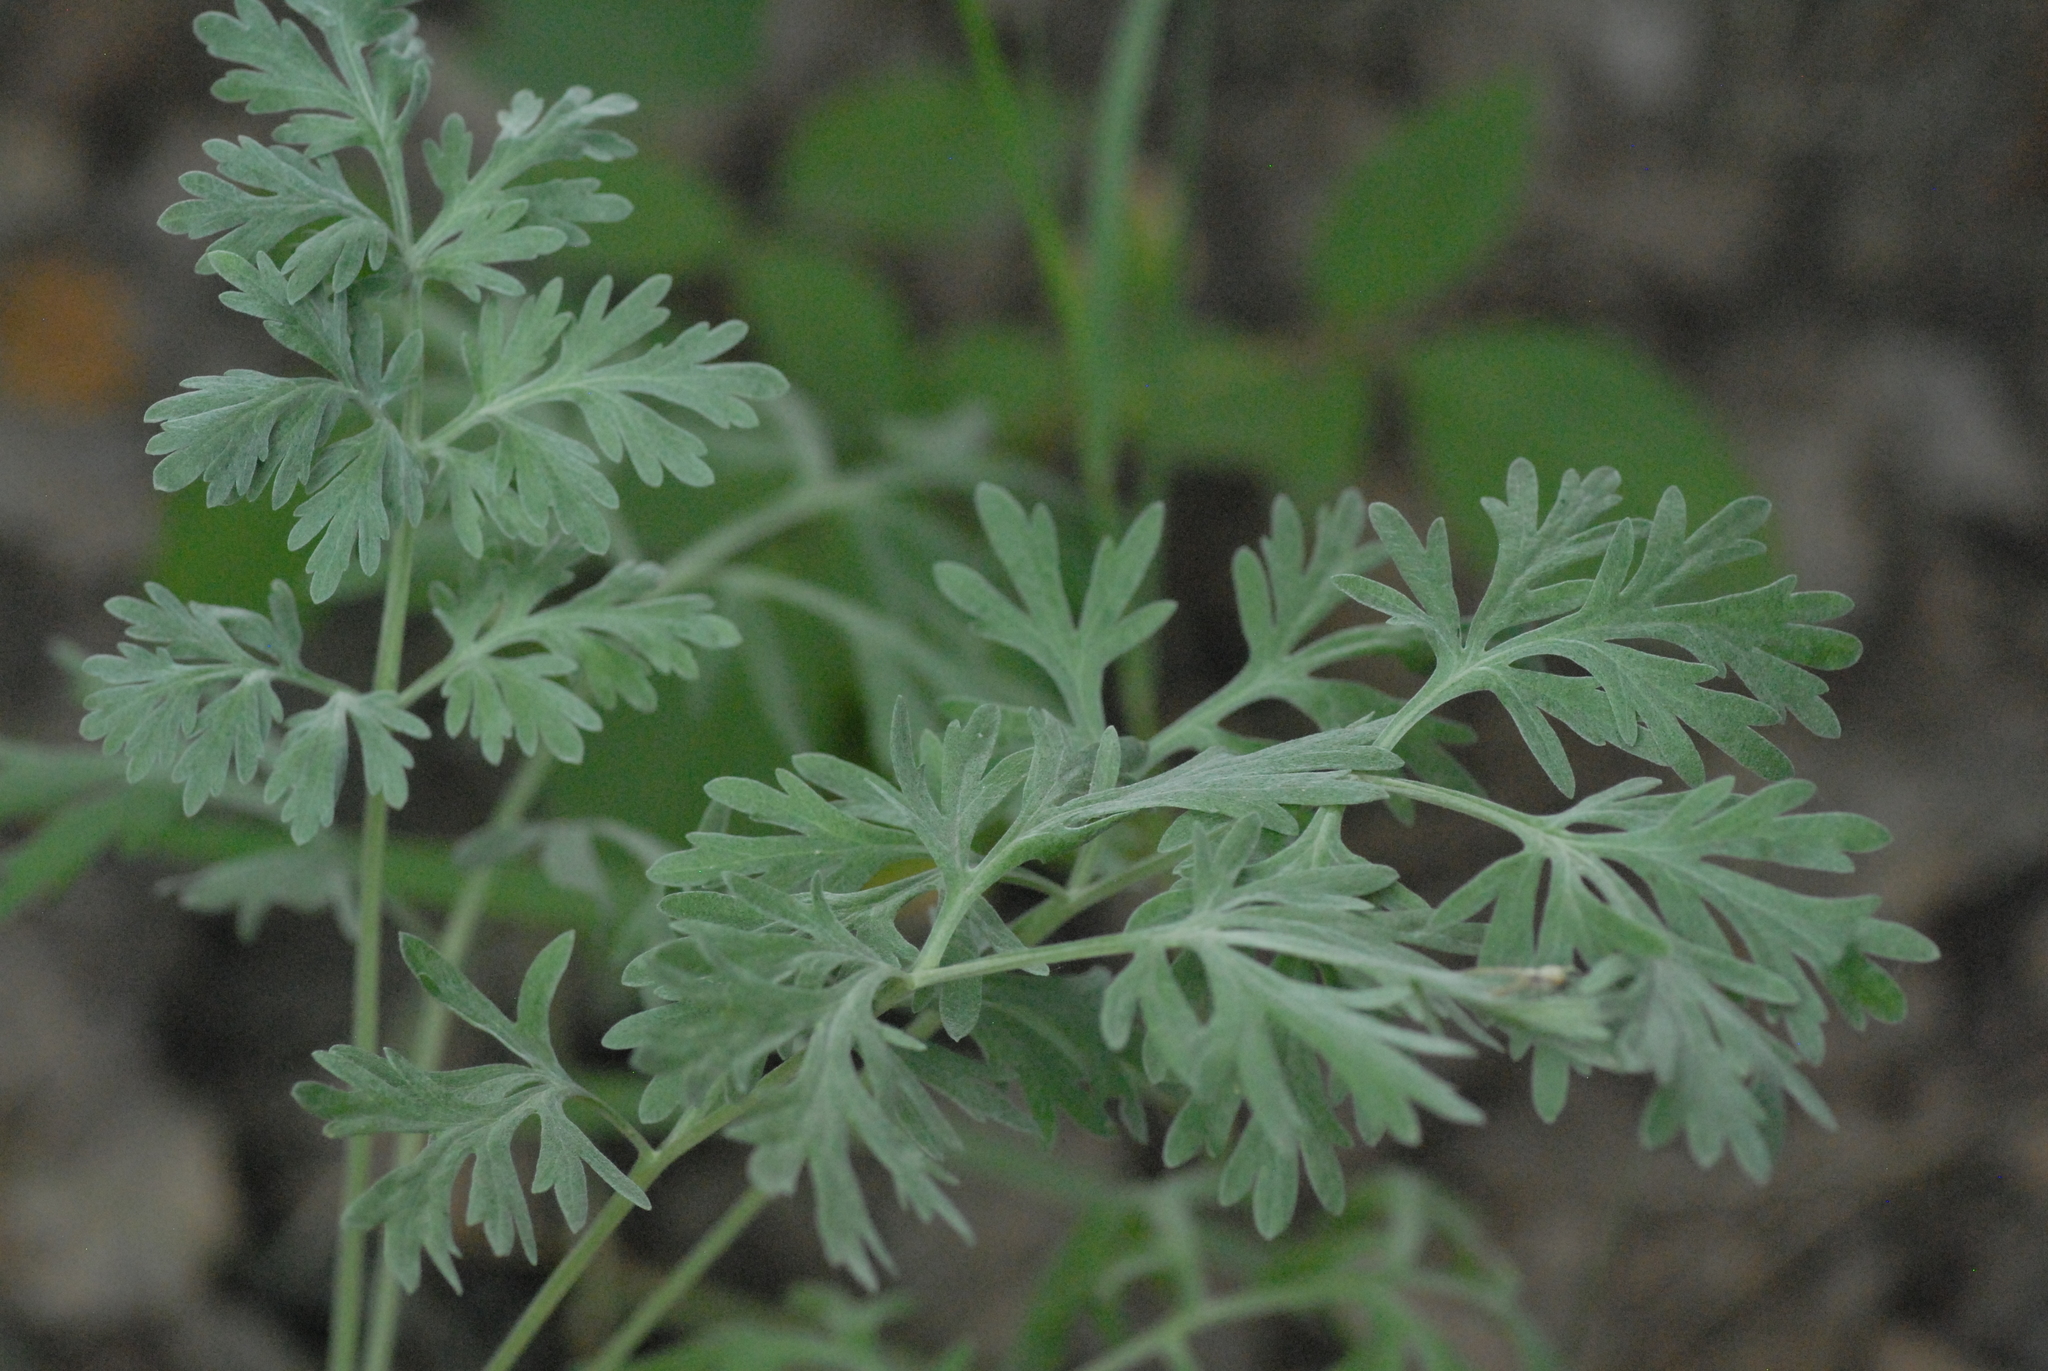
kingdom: Plantae
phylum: Tracheophyta
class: Magnoliopsida
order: Asterales
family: Asteraceae
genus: Artemisia
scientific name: Artemisia absinthium
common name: Wormwood
